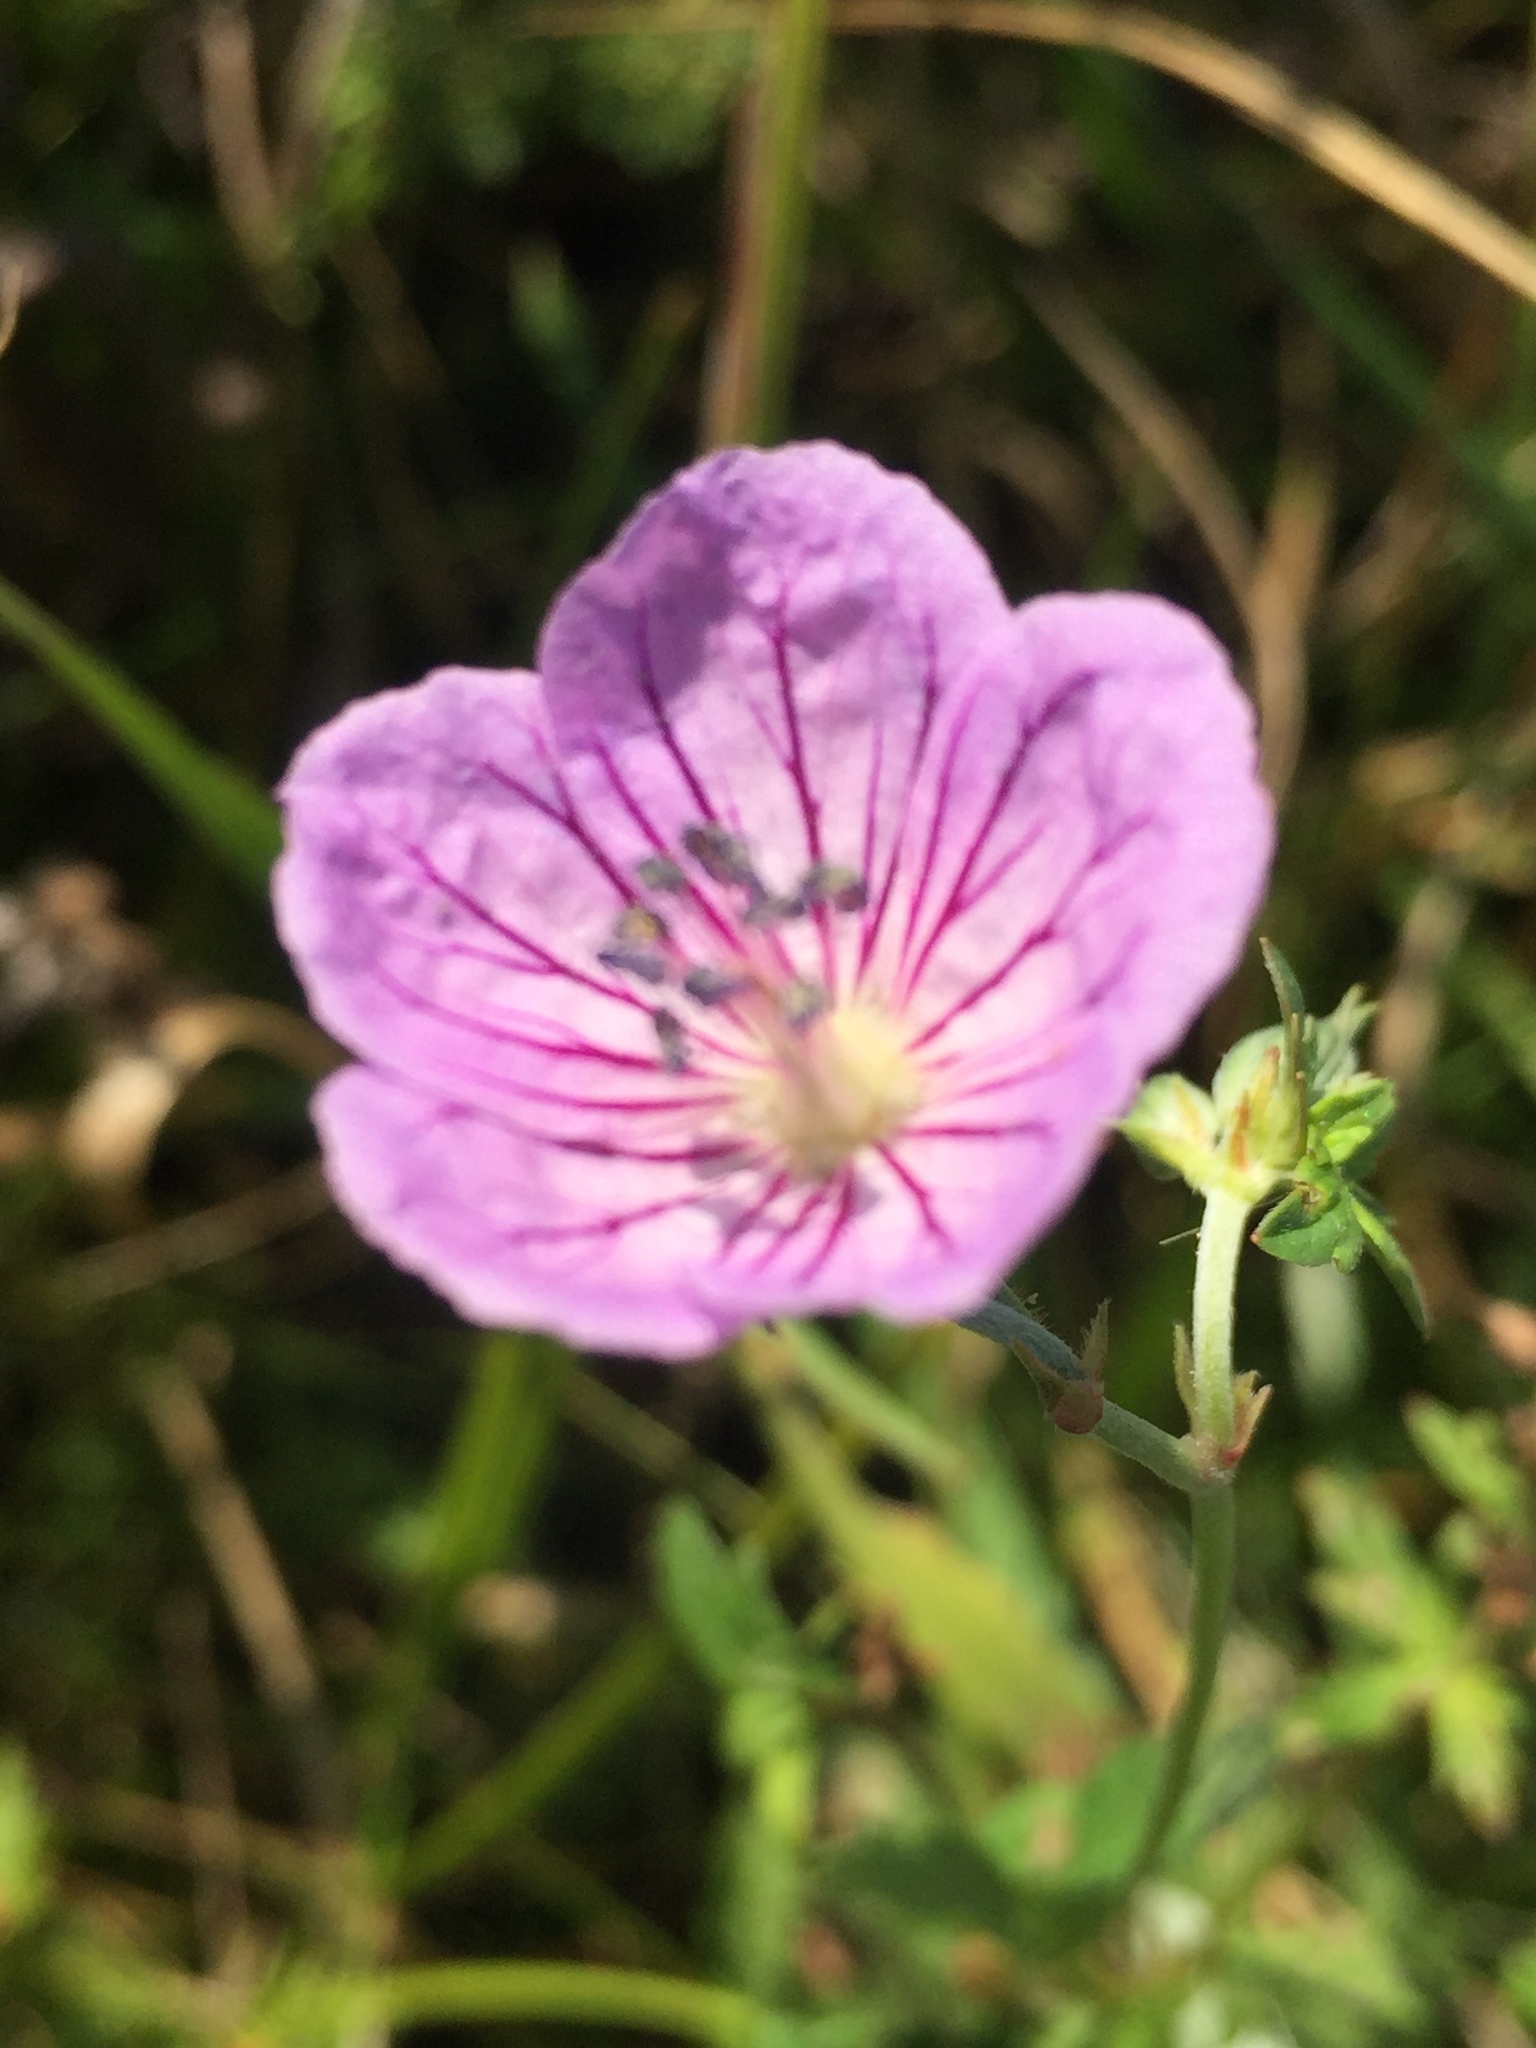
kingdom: Plantae
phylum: Tracheophyta
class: Magnoliopsida
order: Geraniales
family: Geraniaceae
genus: Geranium
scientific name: Geranium collinum
